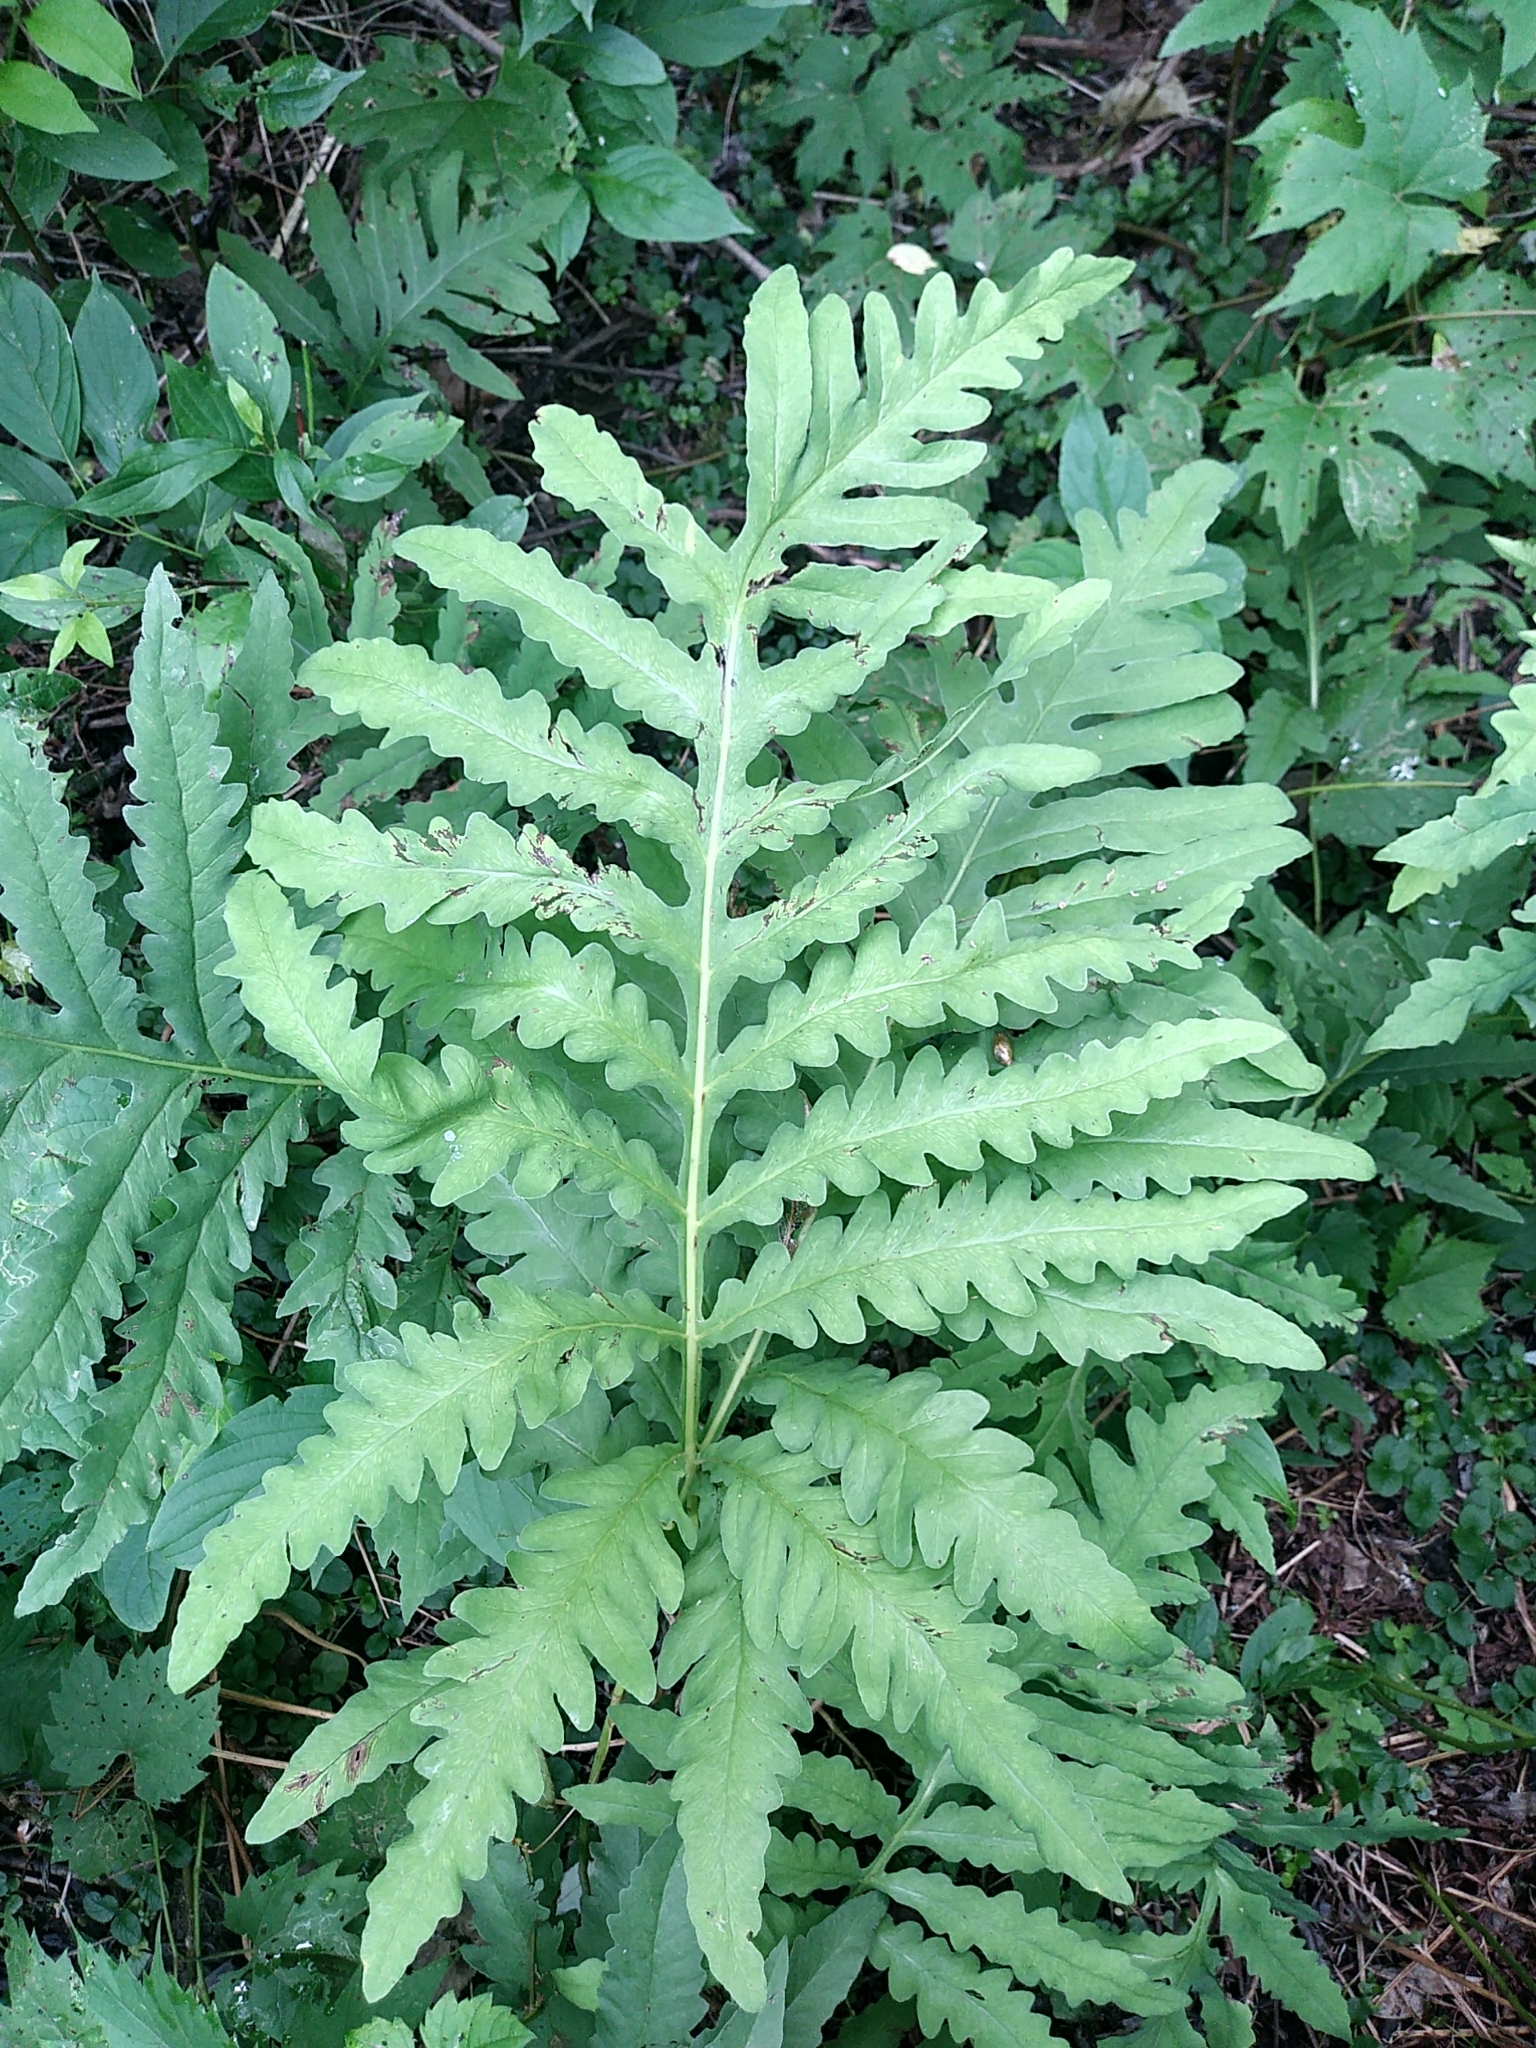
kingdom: Plantae
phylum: Tracheophyta
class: Polypodiopsida
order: Polypodiales
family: Onocleaceae
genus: Onoclea
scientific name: Onoclea sensibilis
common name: Sensitive fern
